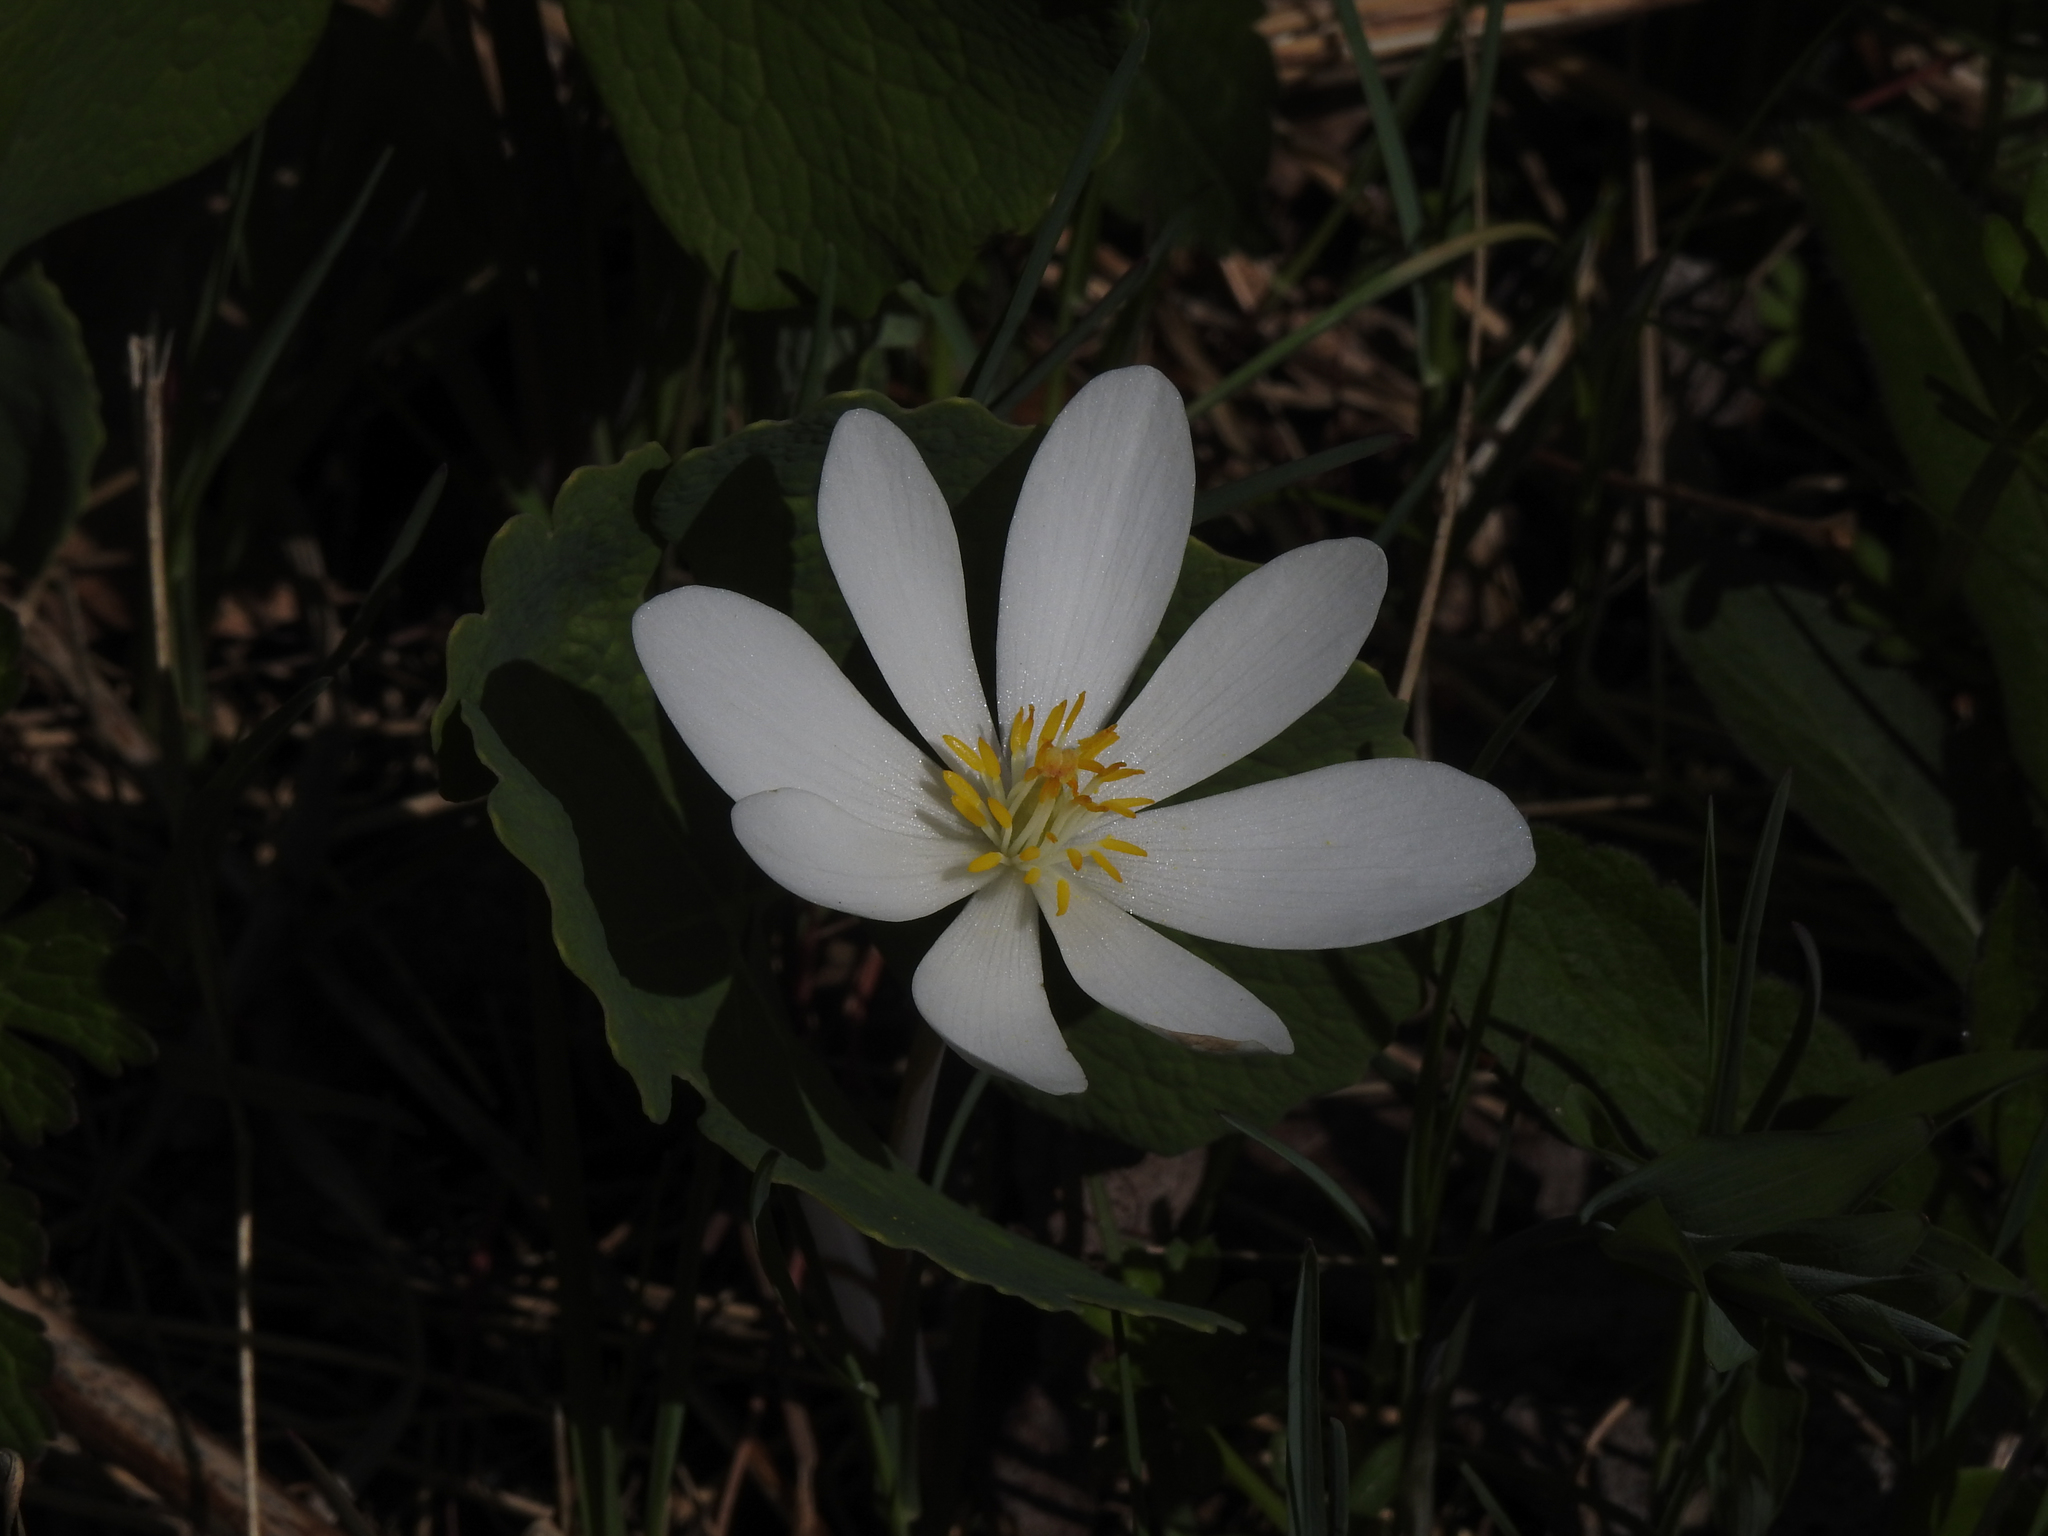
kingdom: Plantae
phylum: Tracheophyta
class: Magnoliopsida
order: Ranunculales
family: Papaveraceae
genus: Sanguinaria
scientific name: Sanguinaria canadensis
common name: Bloodroot
